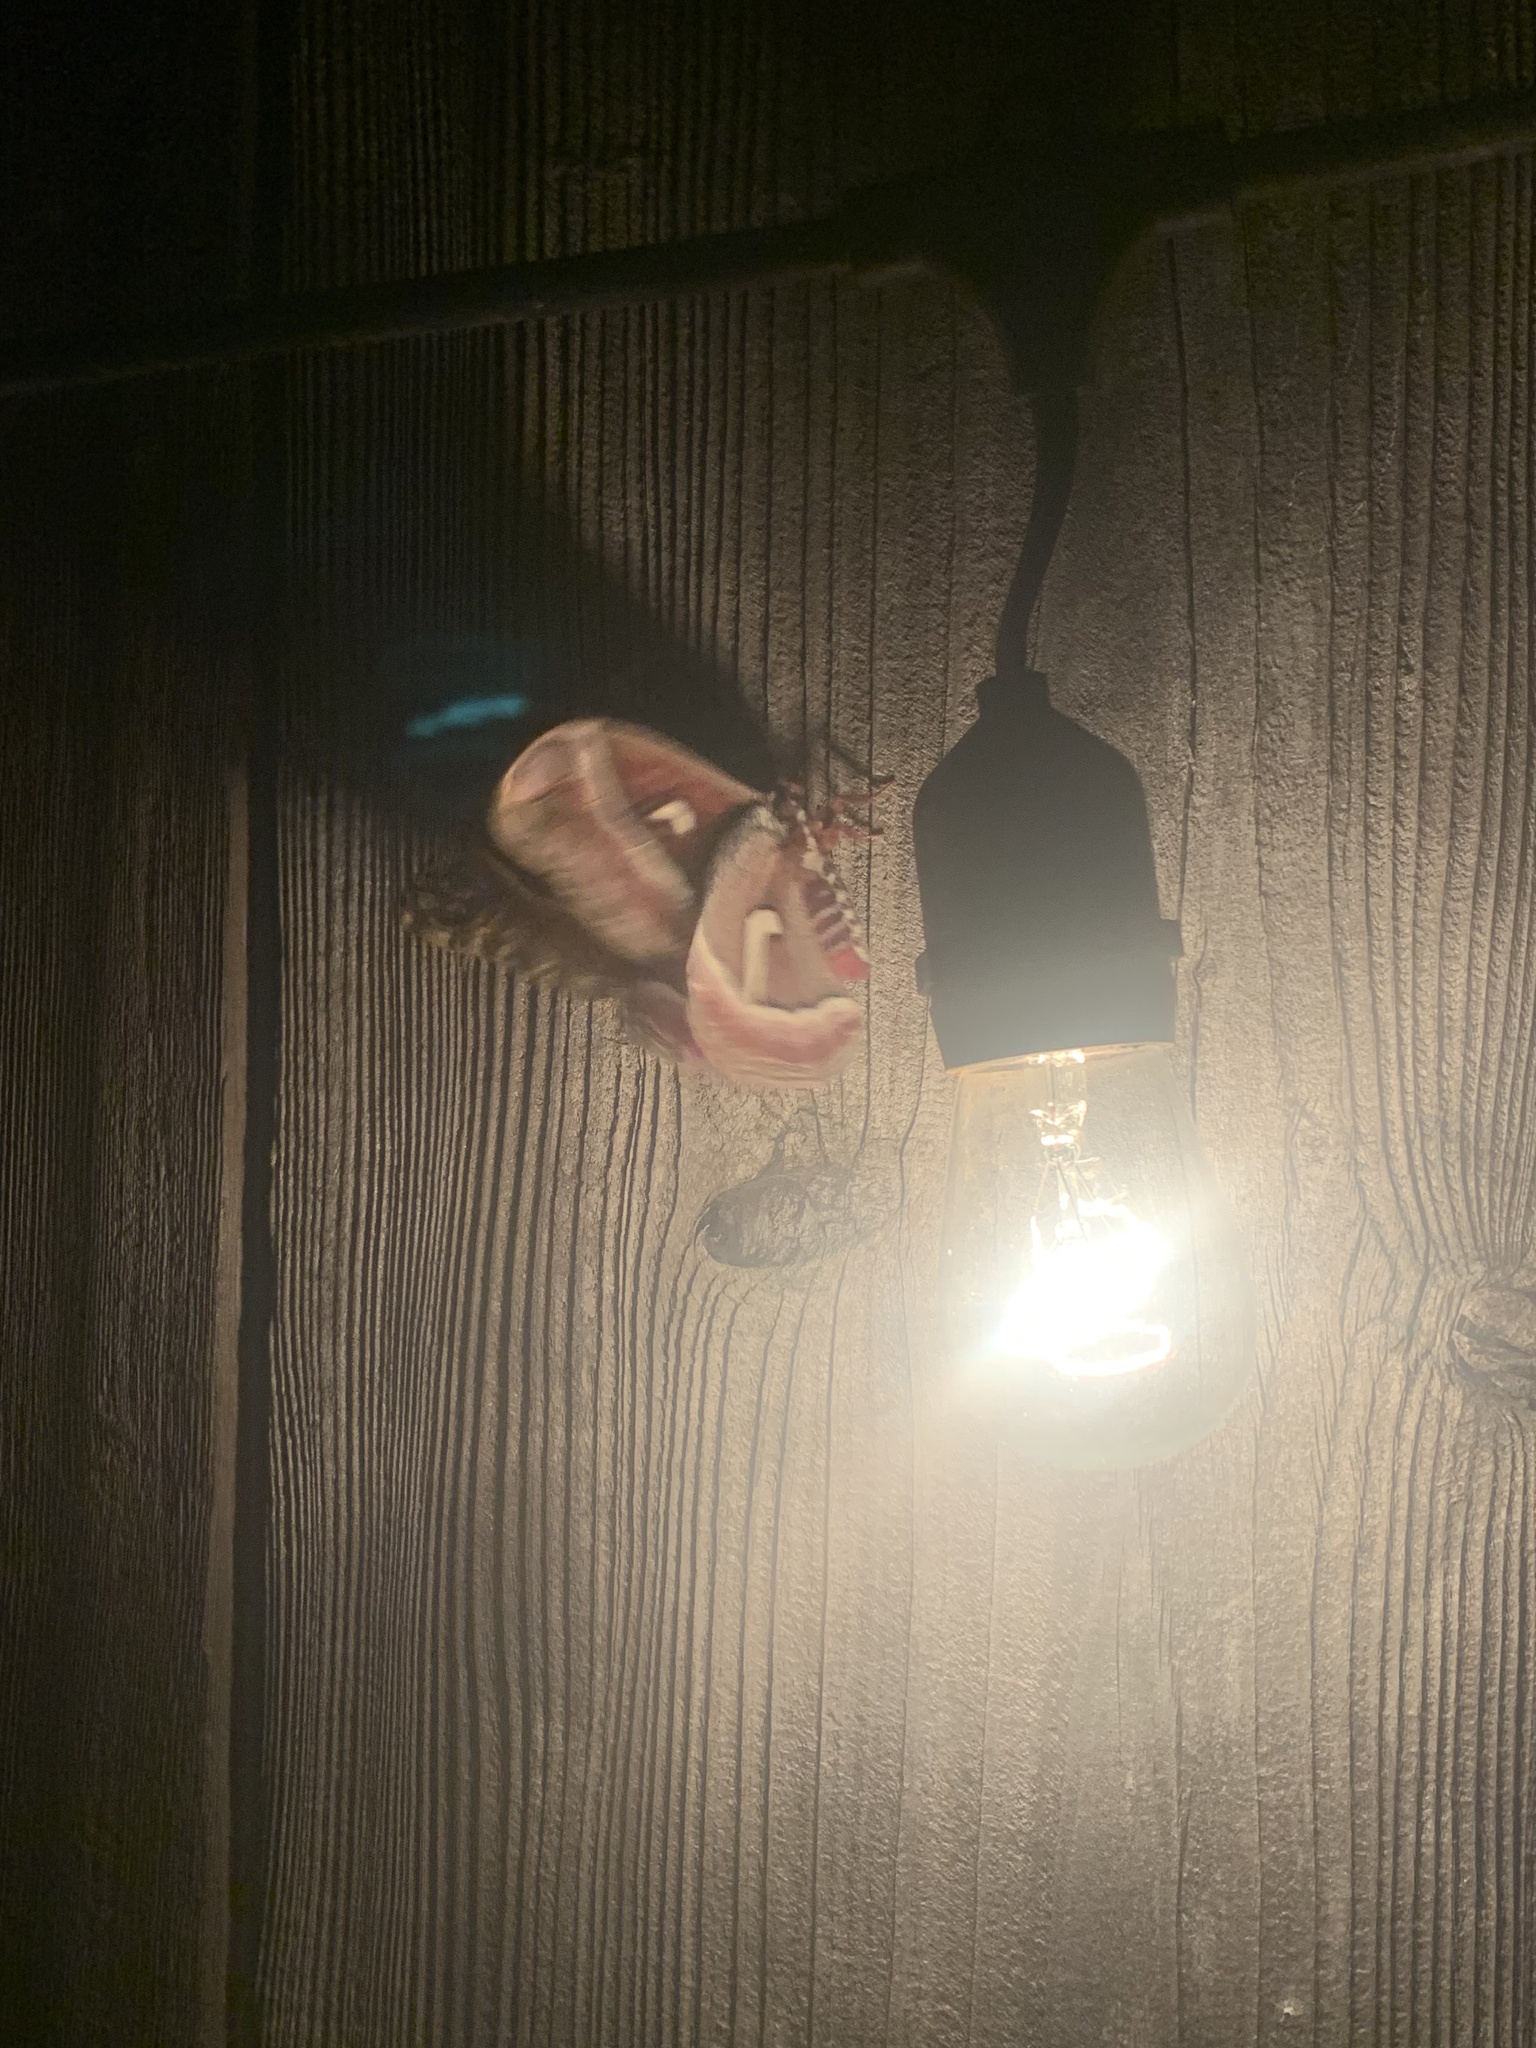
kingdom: Animalia
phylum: Arthropoda
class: Insecta
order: Lepidoptera
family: Saturniidae
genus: Hyalophora
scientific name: Hyalophora euryalus
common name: Ceanothus silkmoth
